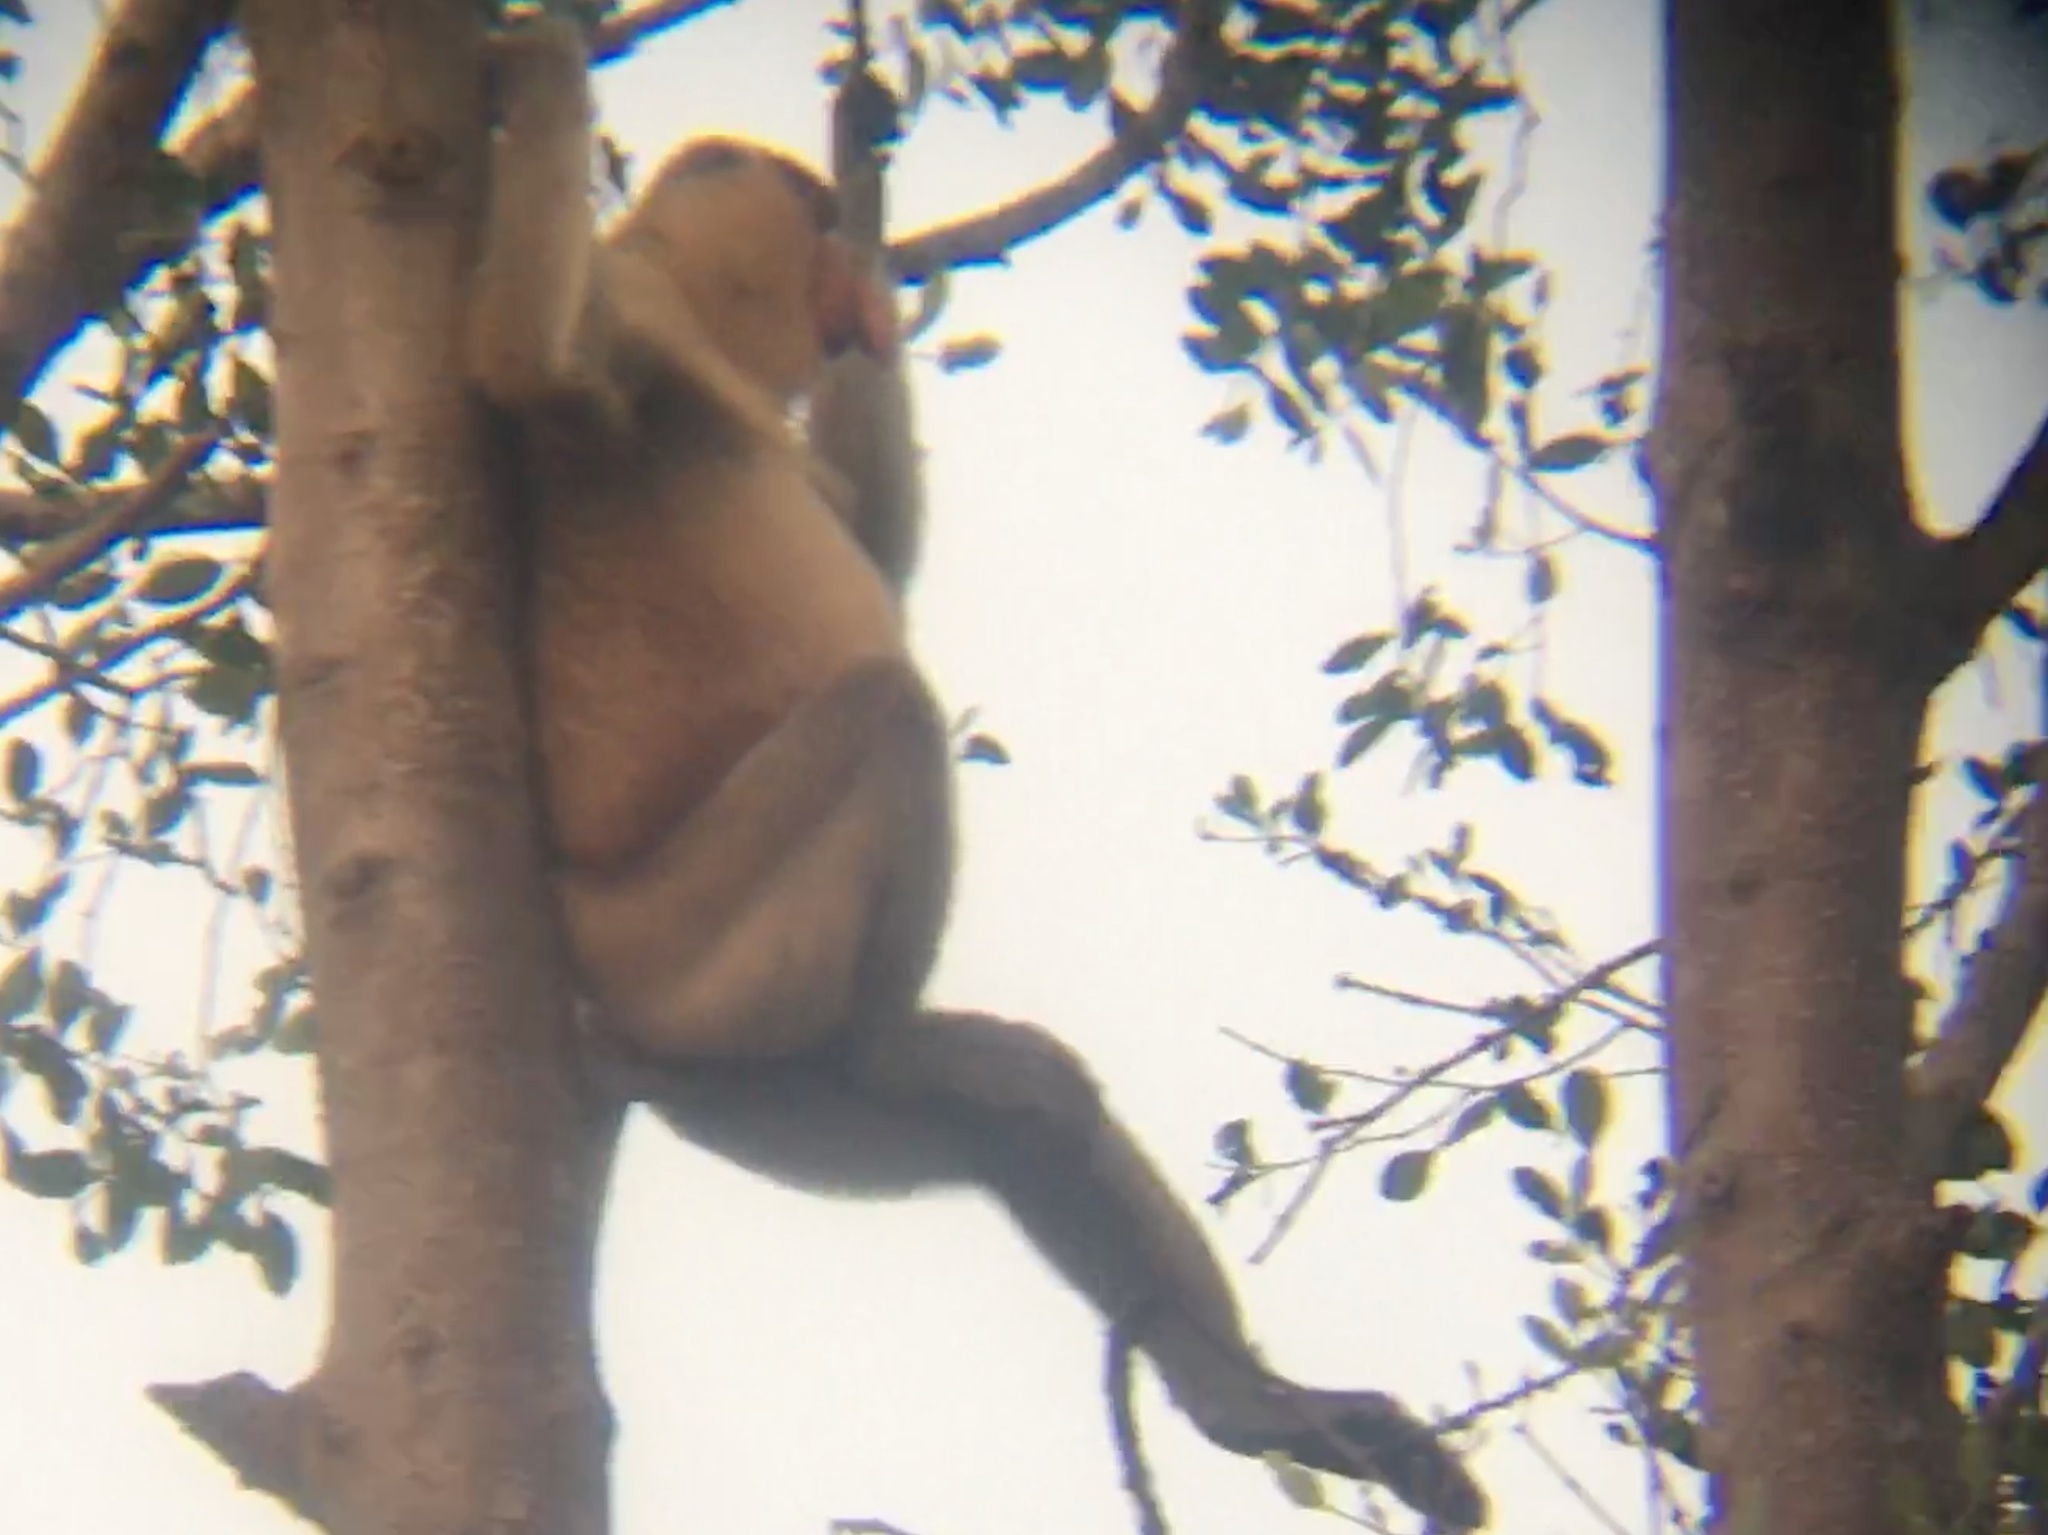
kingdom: Animalia
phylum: Chordata
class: Mammalia
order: Primates
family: Cercopithecidae
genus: Nasalis
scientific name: Nasalis larvatus
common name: Proboscis monkey
